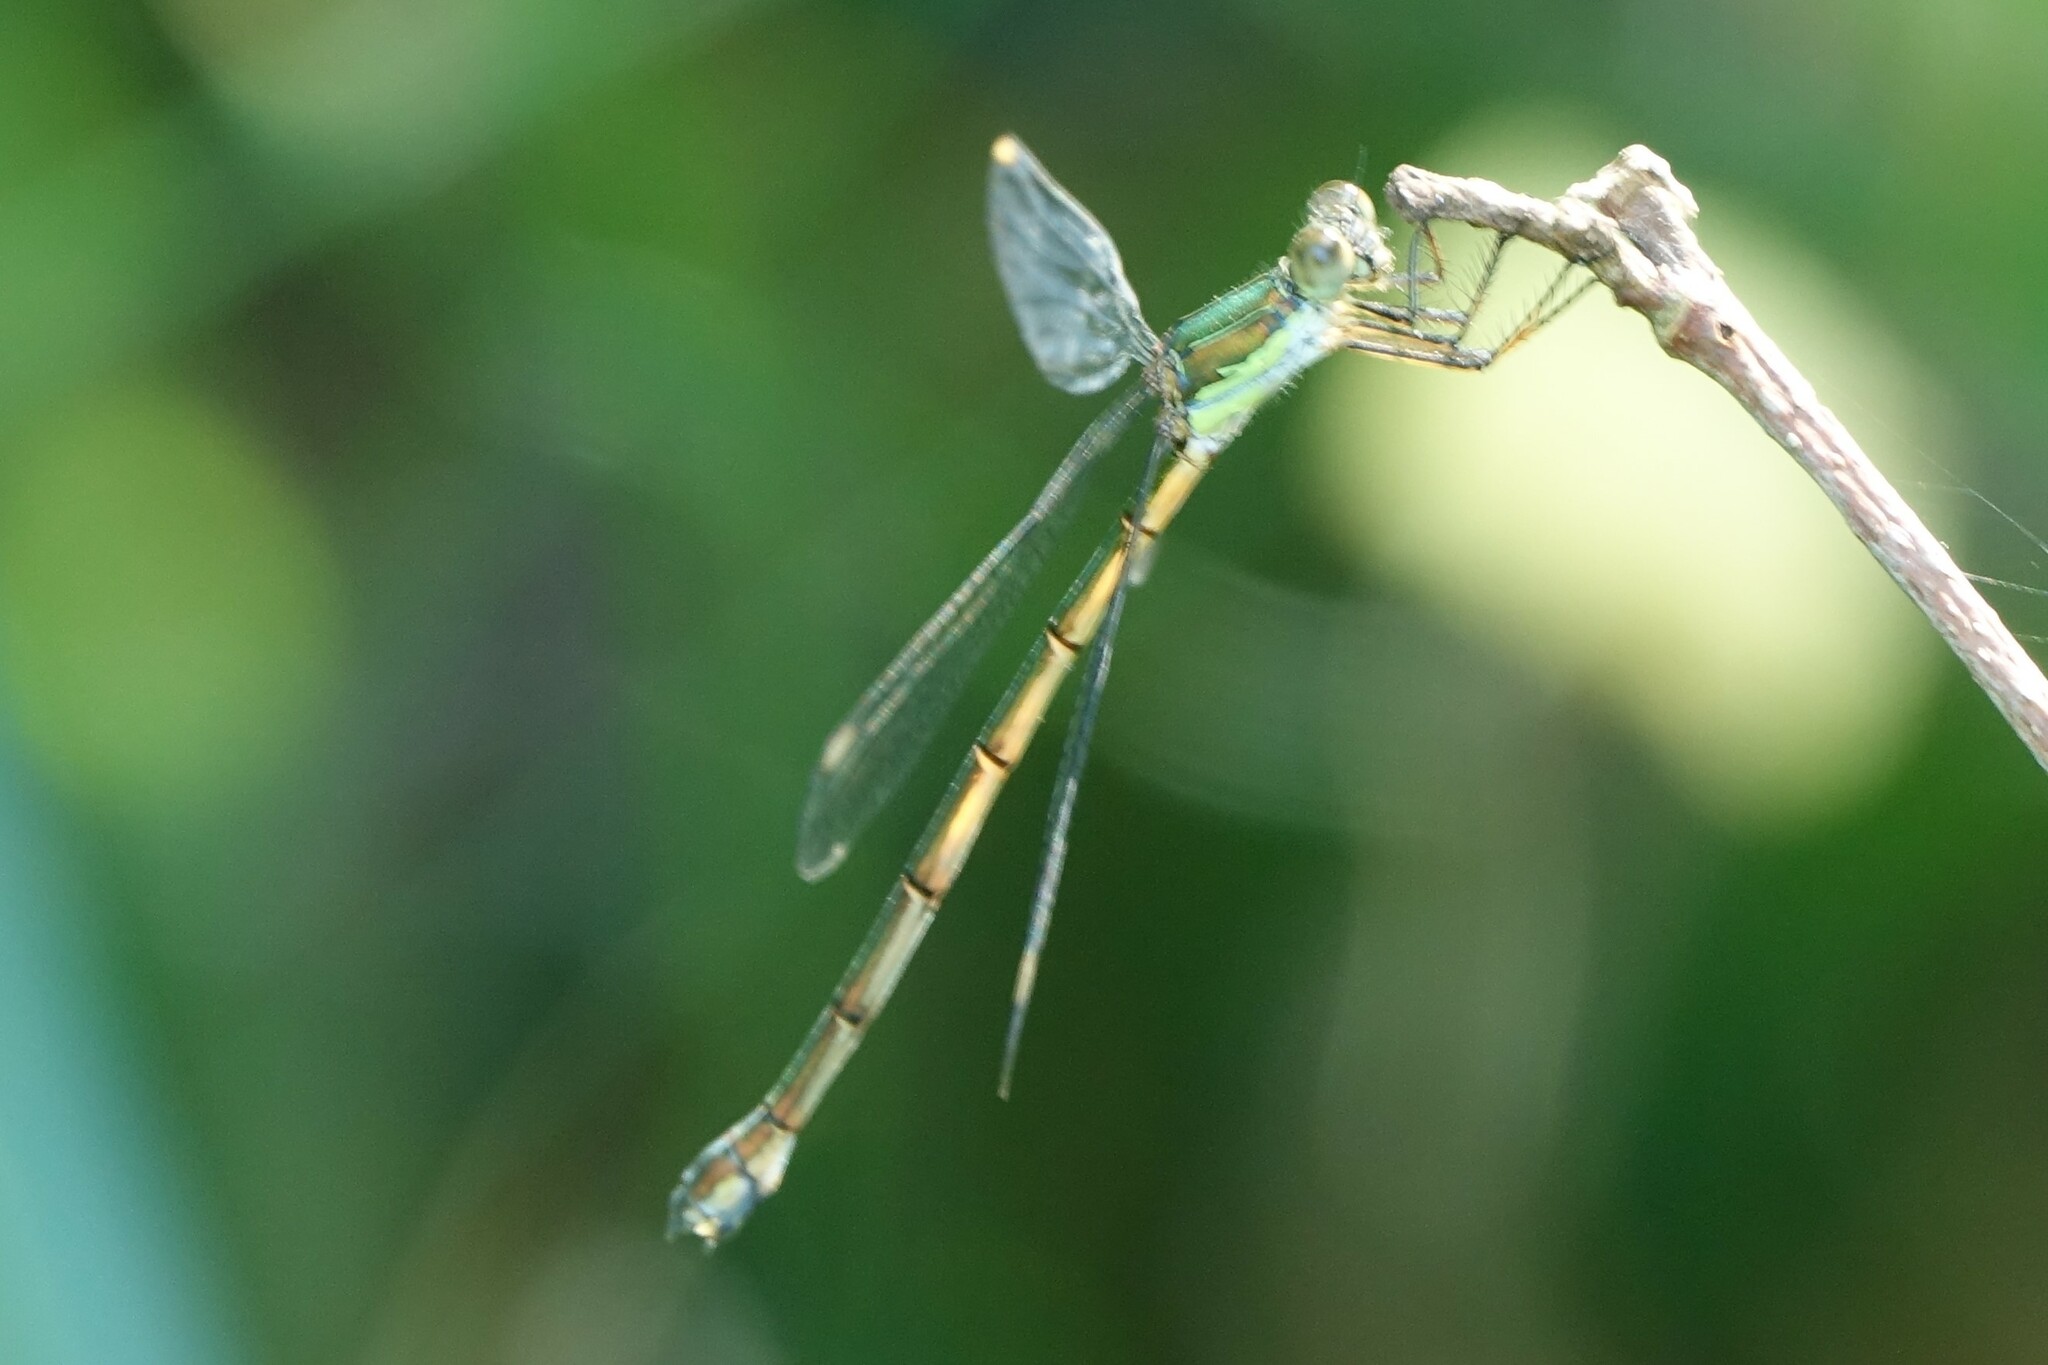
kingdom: Animalia
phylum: Arthropoda
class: Insecta
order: Odonata
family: Lestidae
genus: Chalcolestes
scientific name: Chalcolestes viridis
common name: Green emerald damselfly
